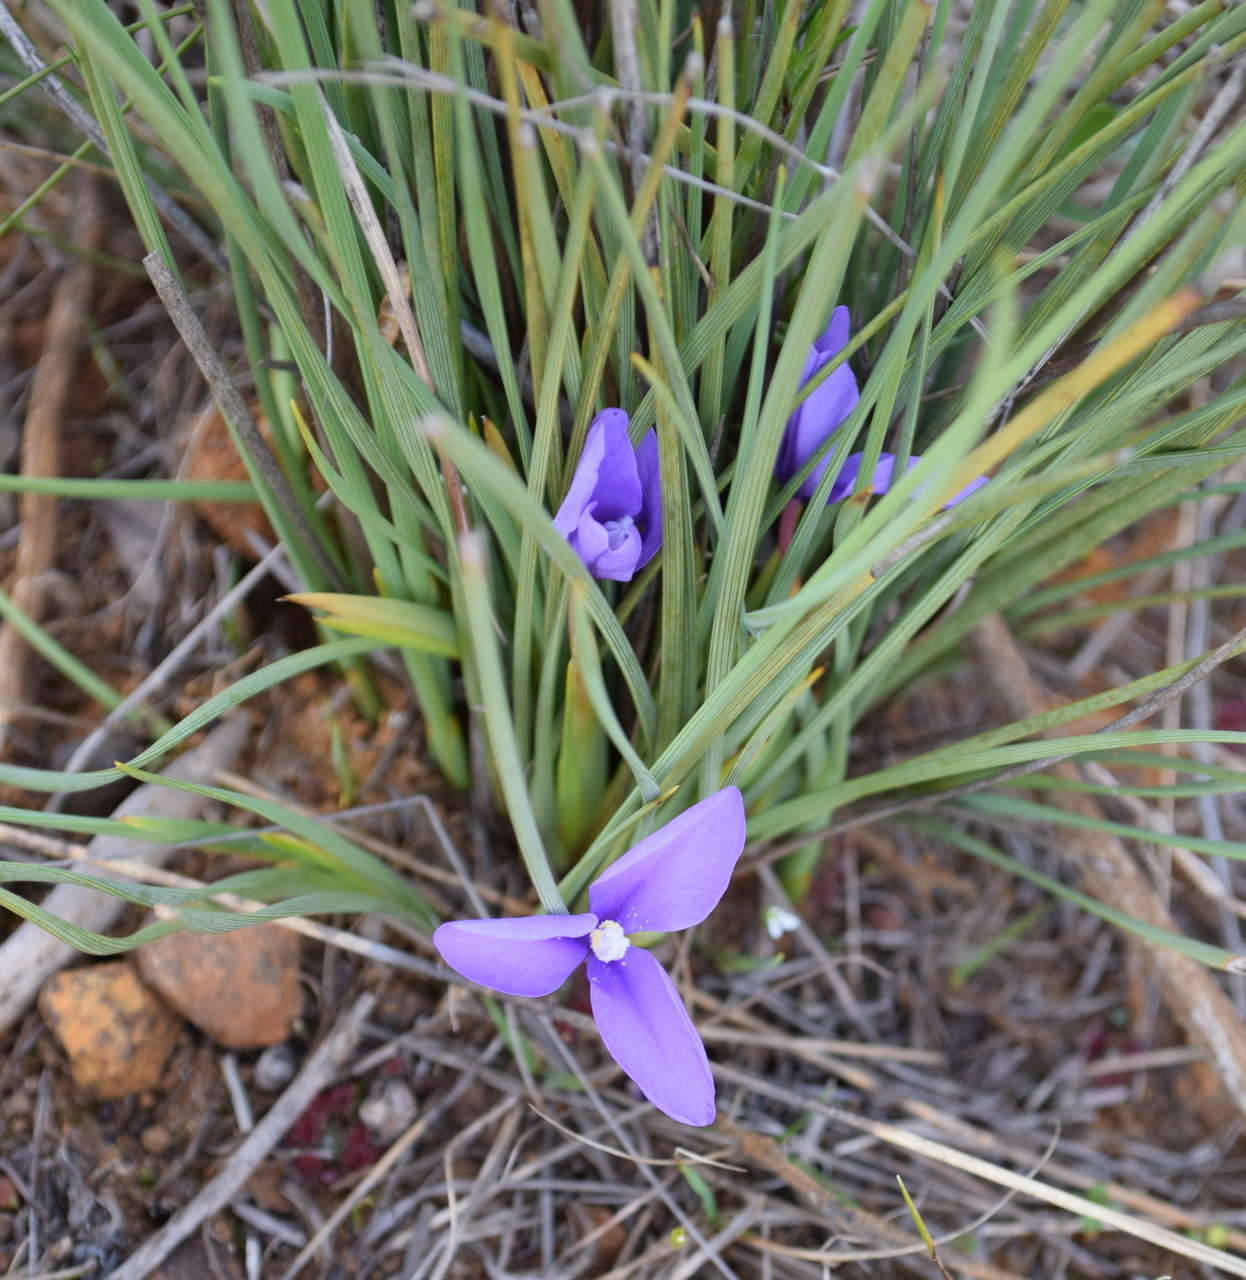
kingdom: Plantae
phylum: Tracheophyta
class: Liliopsida
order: Asparagales
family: Iridaceae
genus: Patersonia
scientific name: Patersonia fragilis
